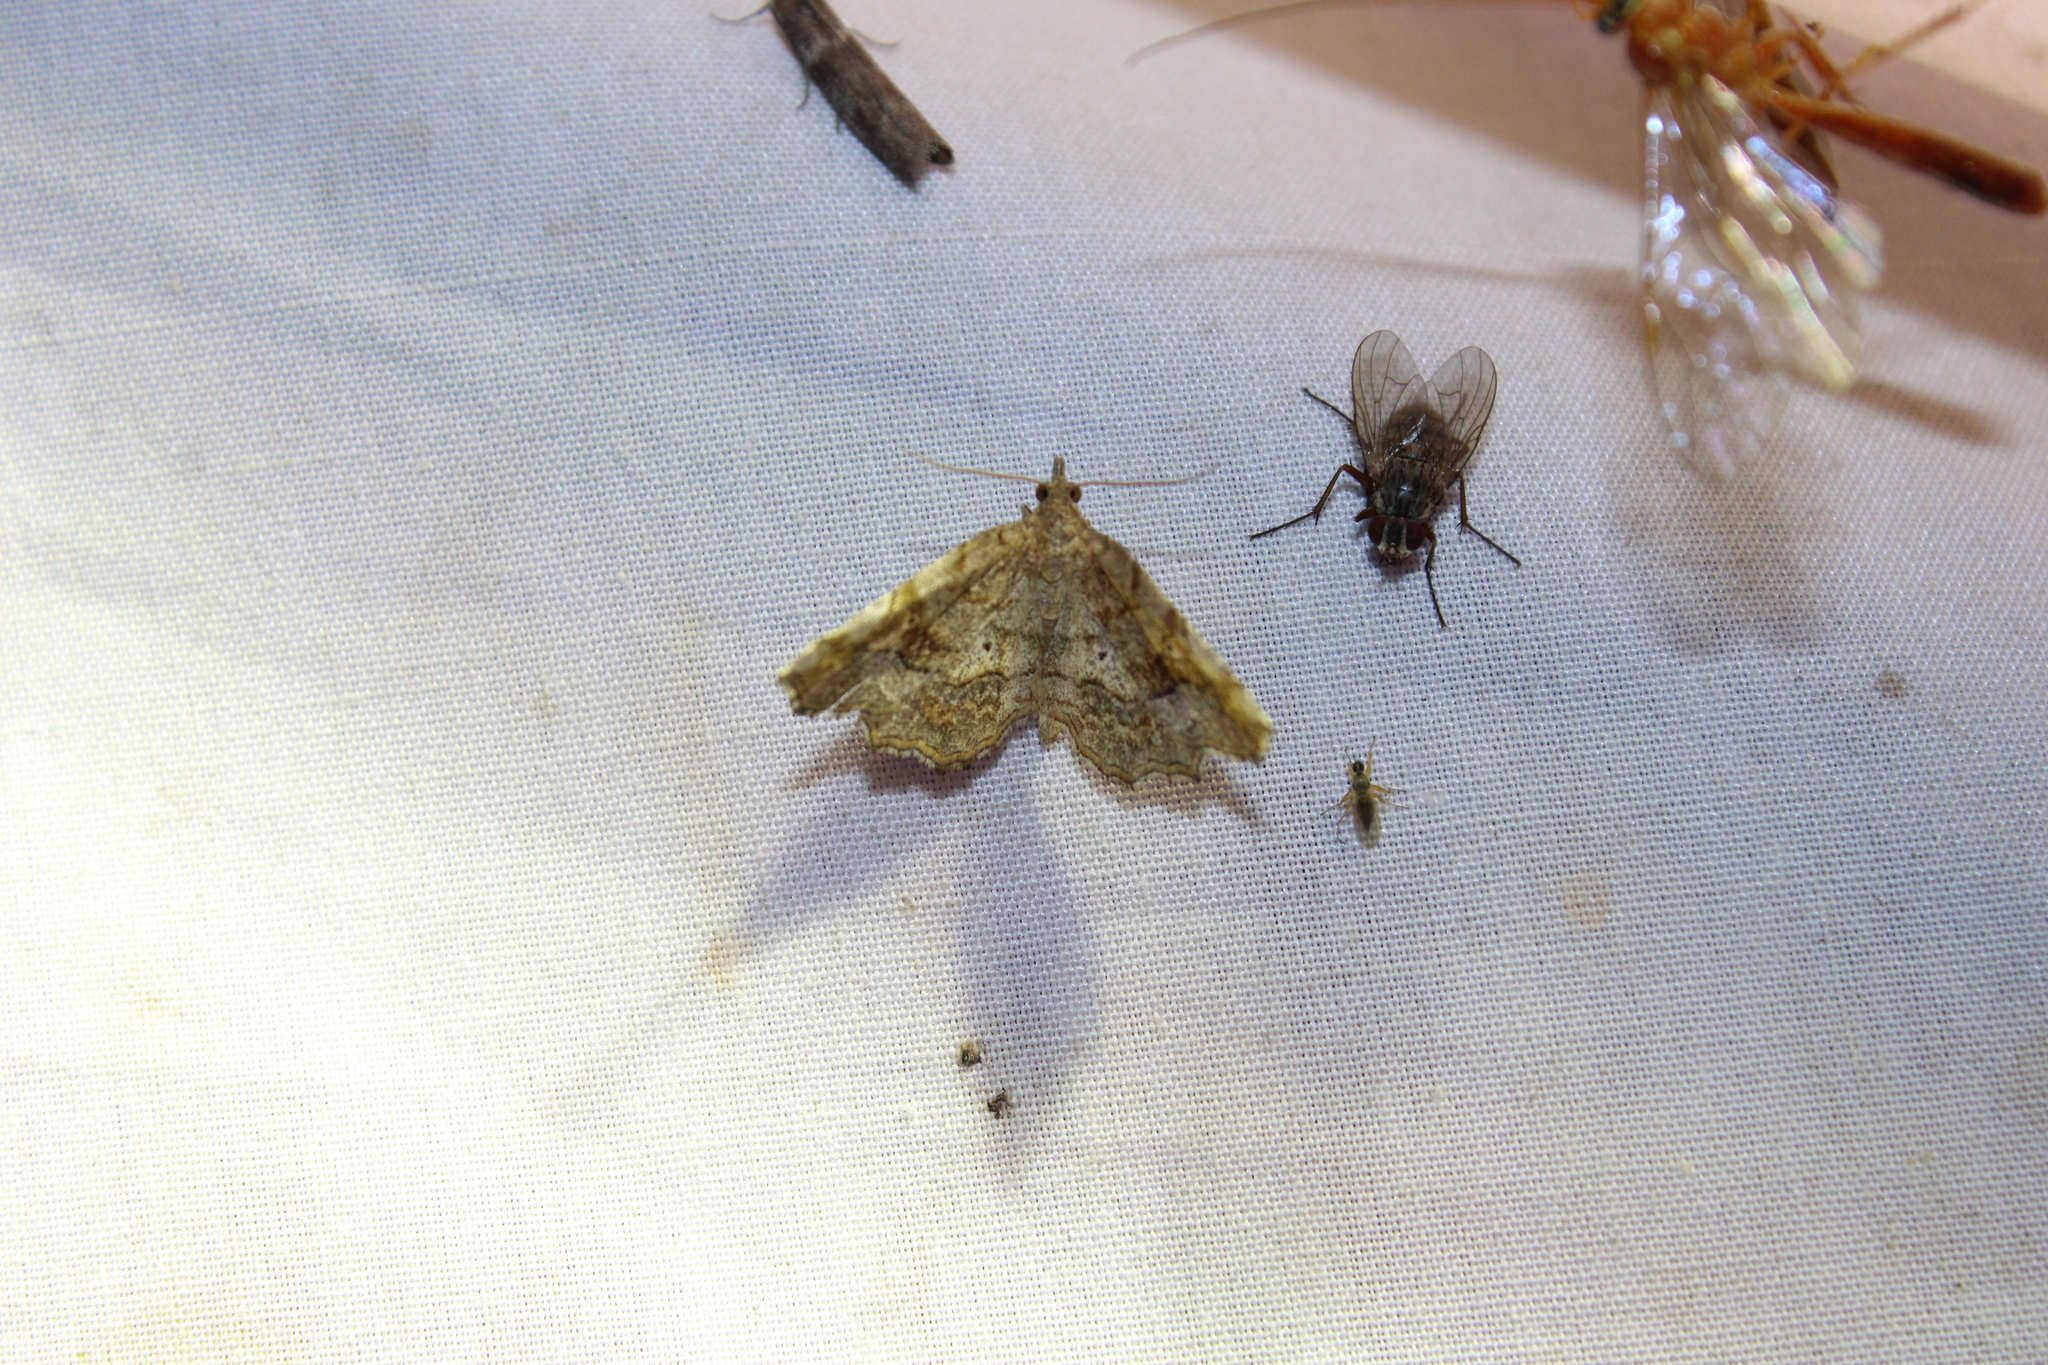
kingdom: Animalia
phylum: Arthropoda
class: Insecta
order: Lepidoptera
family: Erebidae
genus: Pangrapta
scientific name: Pangrapta decoralis
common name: Decorated owlet
